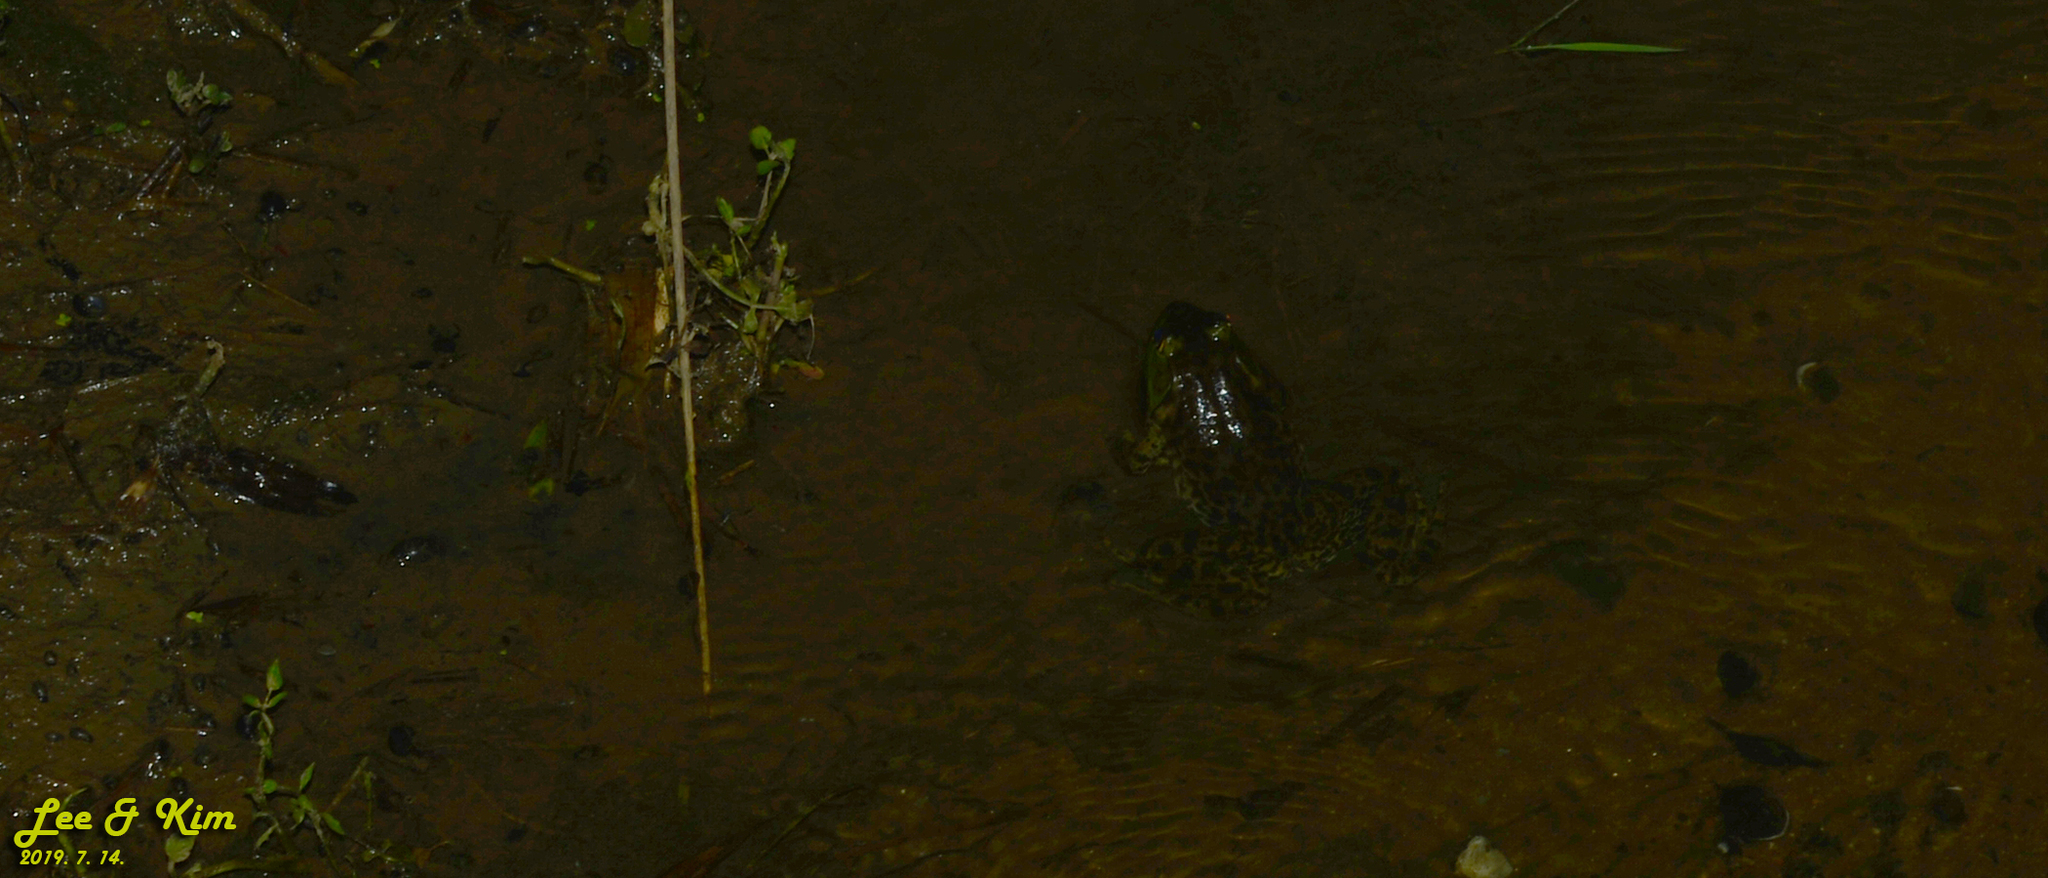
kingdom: Animalia
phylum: Chordata
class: Amphibia
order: Anura
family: Ranidae
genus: Lithobates
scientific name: Lithobates catesbeianus
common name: American bullfrog
